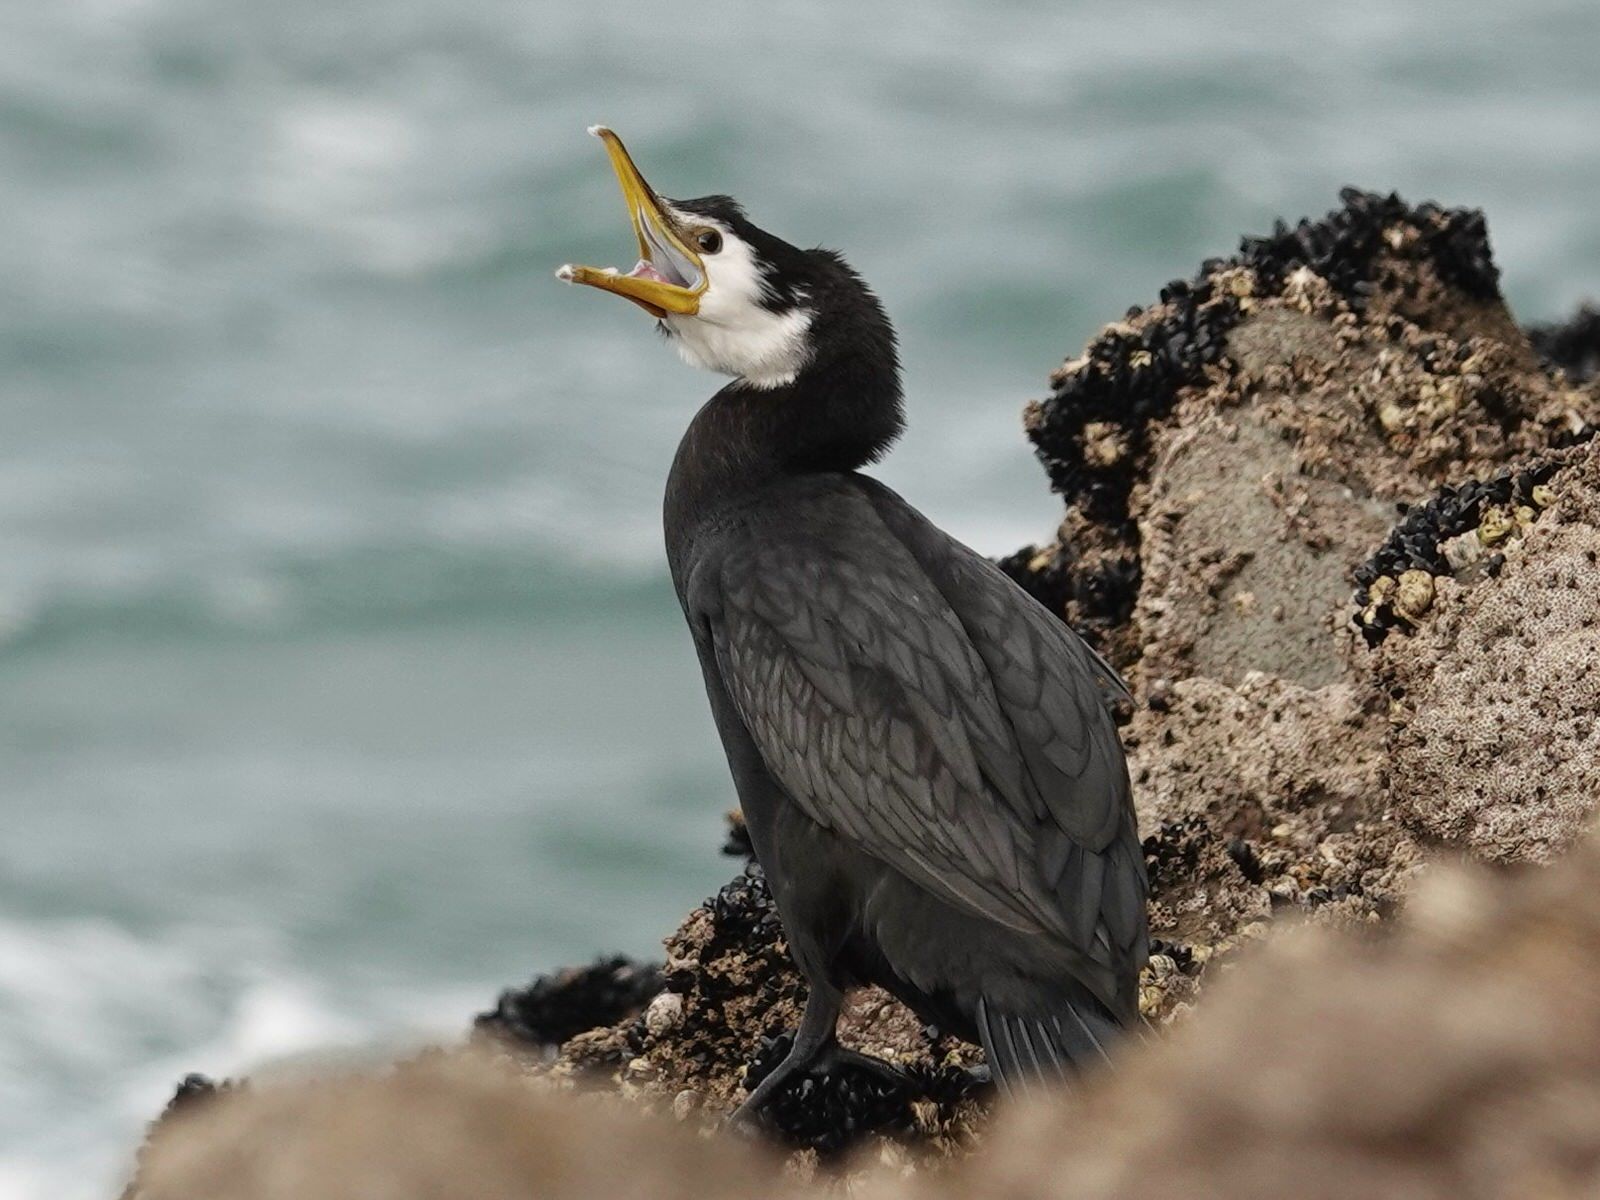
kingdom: Animalia
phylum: Chordata
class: Aves
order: Suliformes
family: Phalacrocoracidae
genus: Microcarbo
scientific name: Microcarbo melanoleucos
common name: Little pied cormorant
